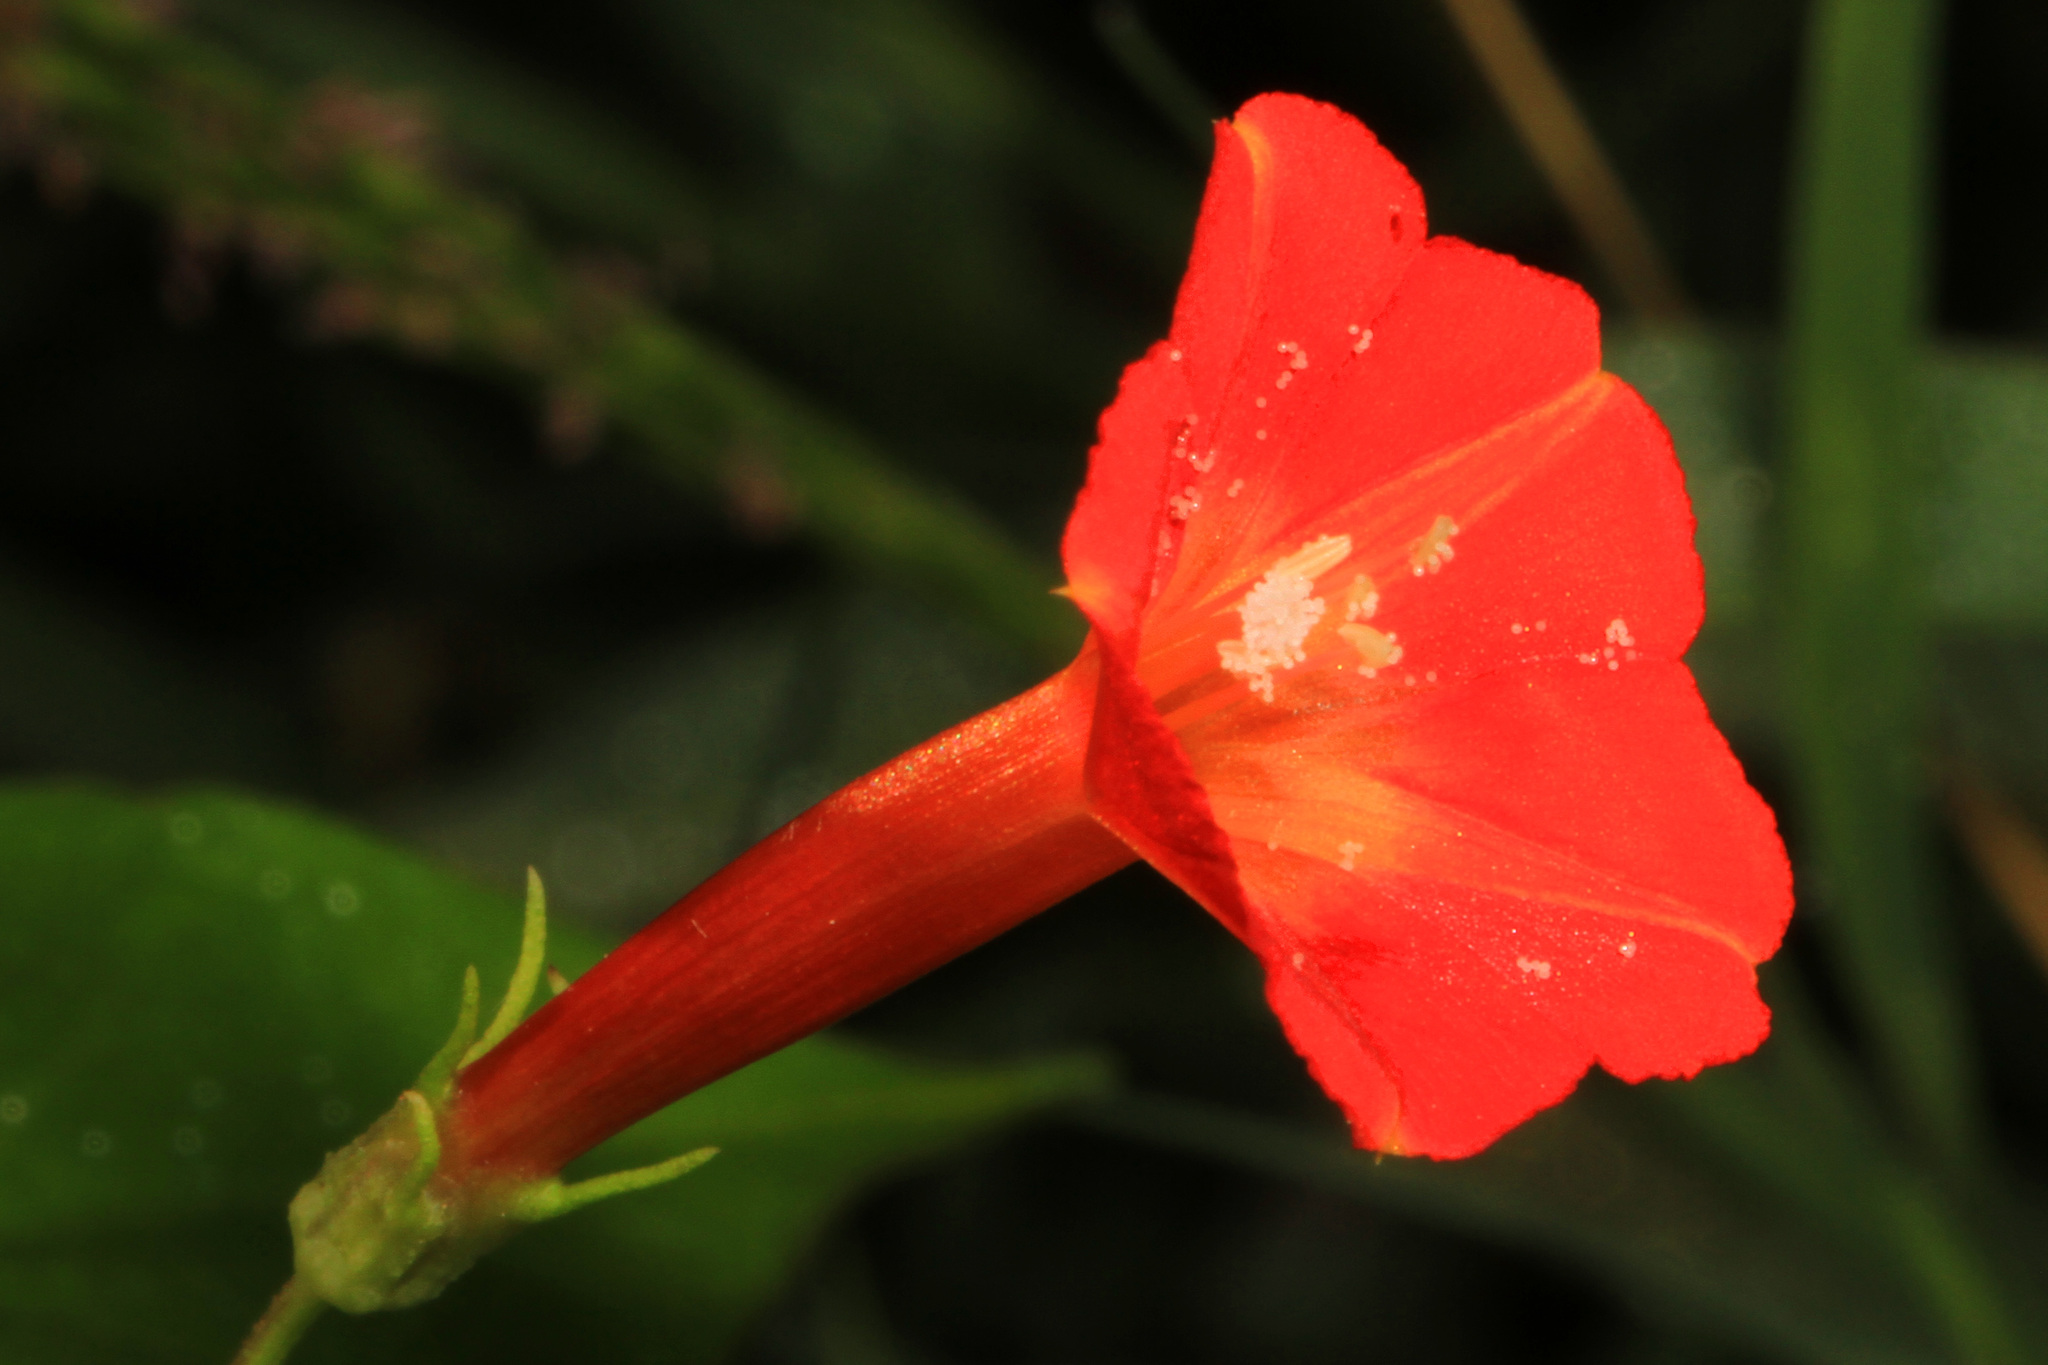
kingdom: Plantae
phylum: Tracheophyta
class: Magnoliopsida
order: Solanales
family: Convolvulaceae
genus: Ipomoea
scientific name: Ipomoea coccinea
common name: Red morning-glory
